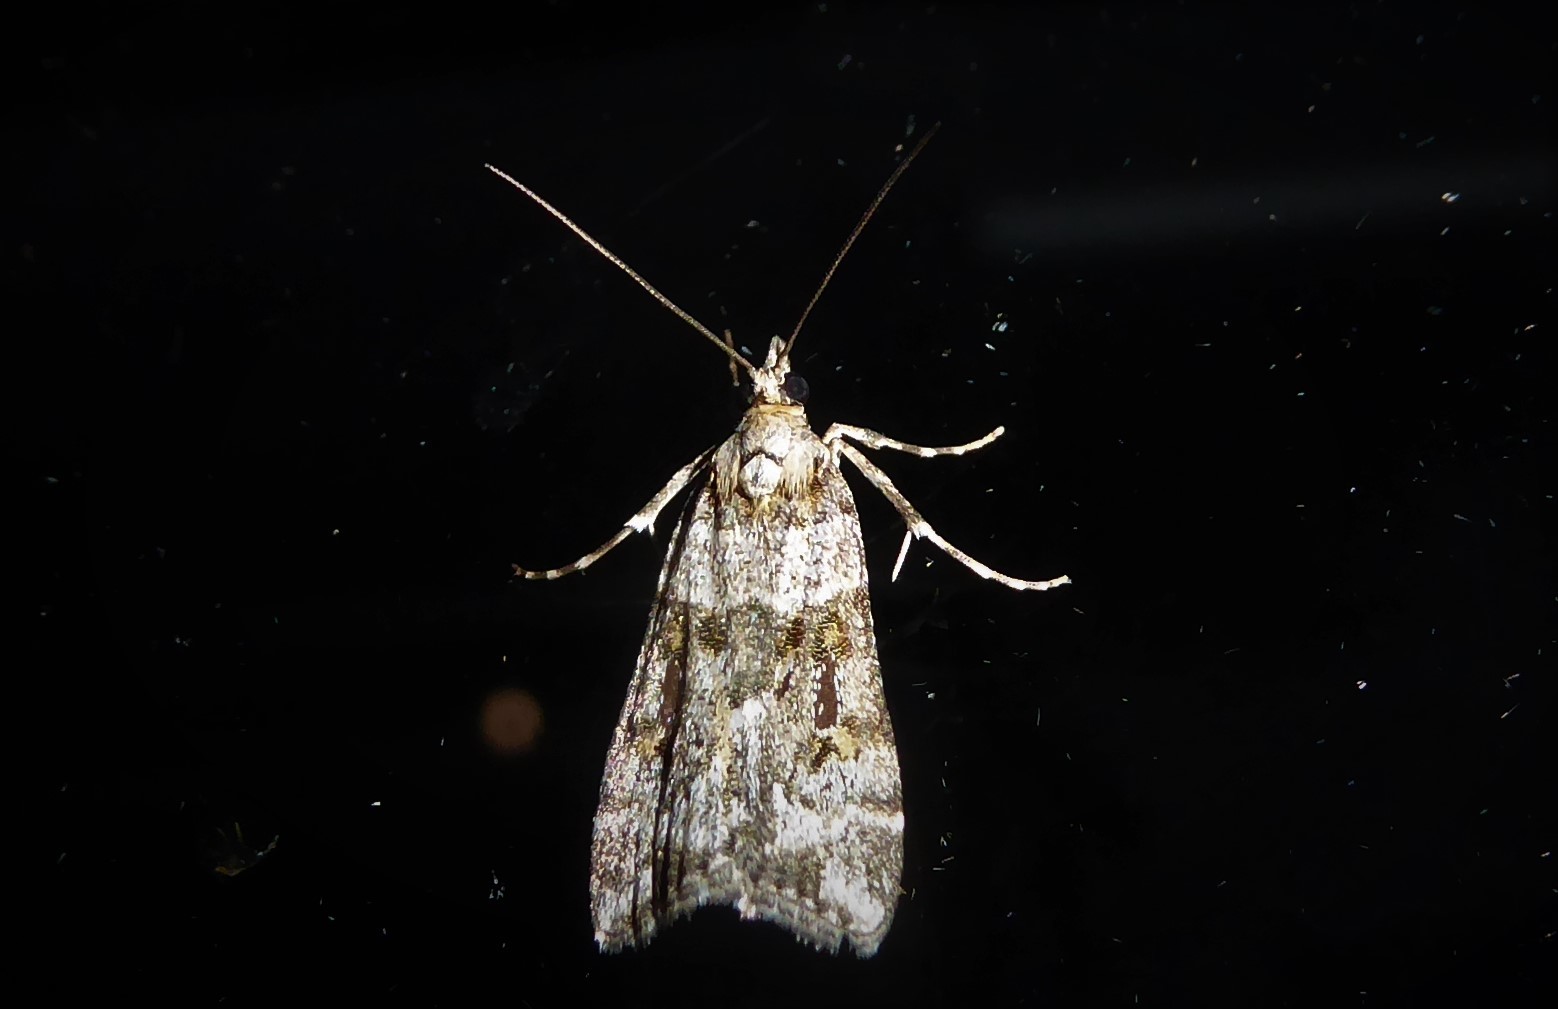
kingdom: Animalia
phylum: Arthropoda
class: Insecta
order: Lepidoptera
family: Crambidae
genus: Eudonia
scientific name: Eudonia diphtheralis
